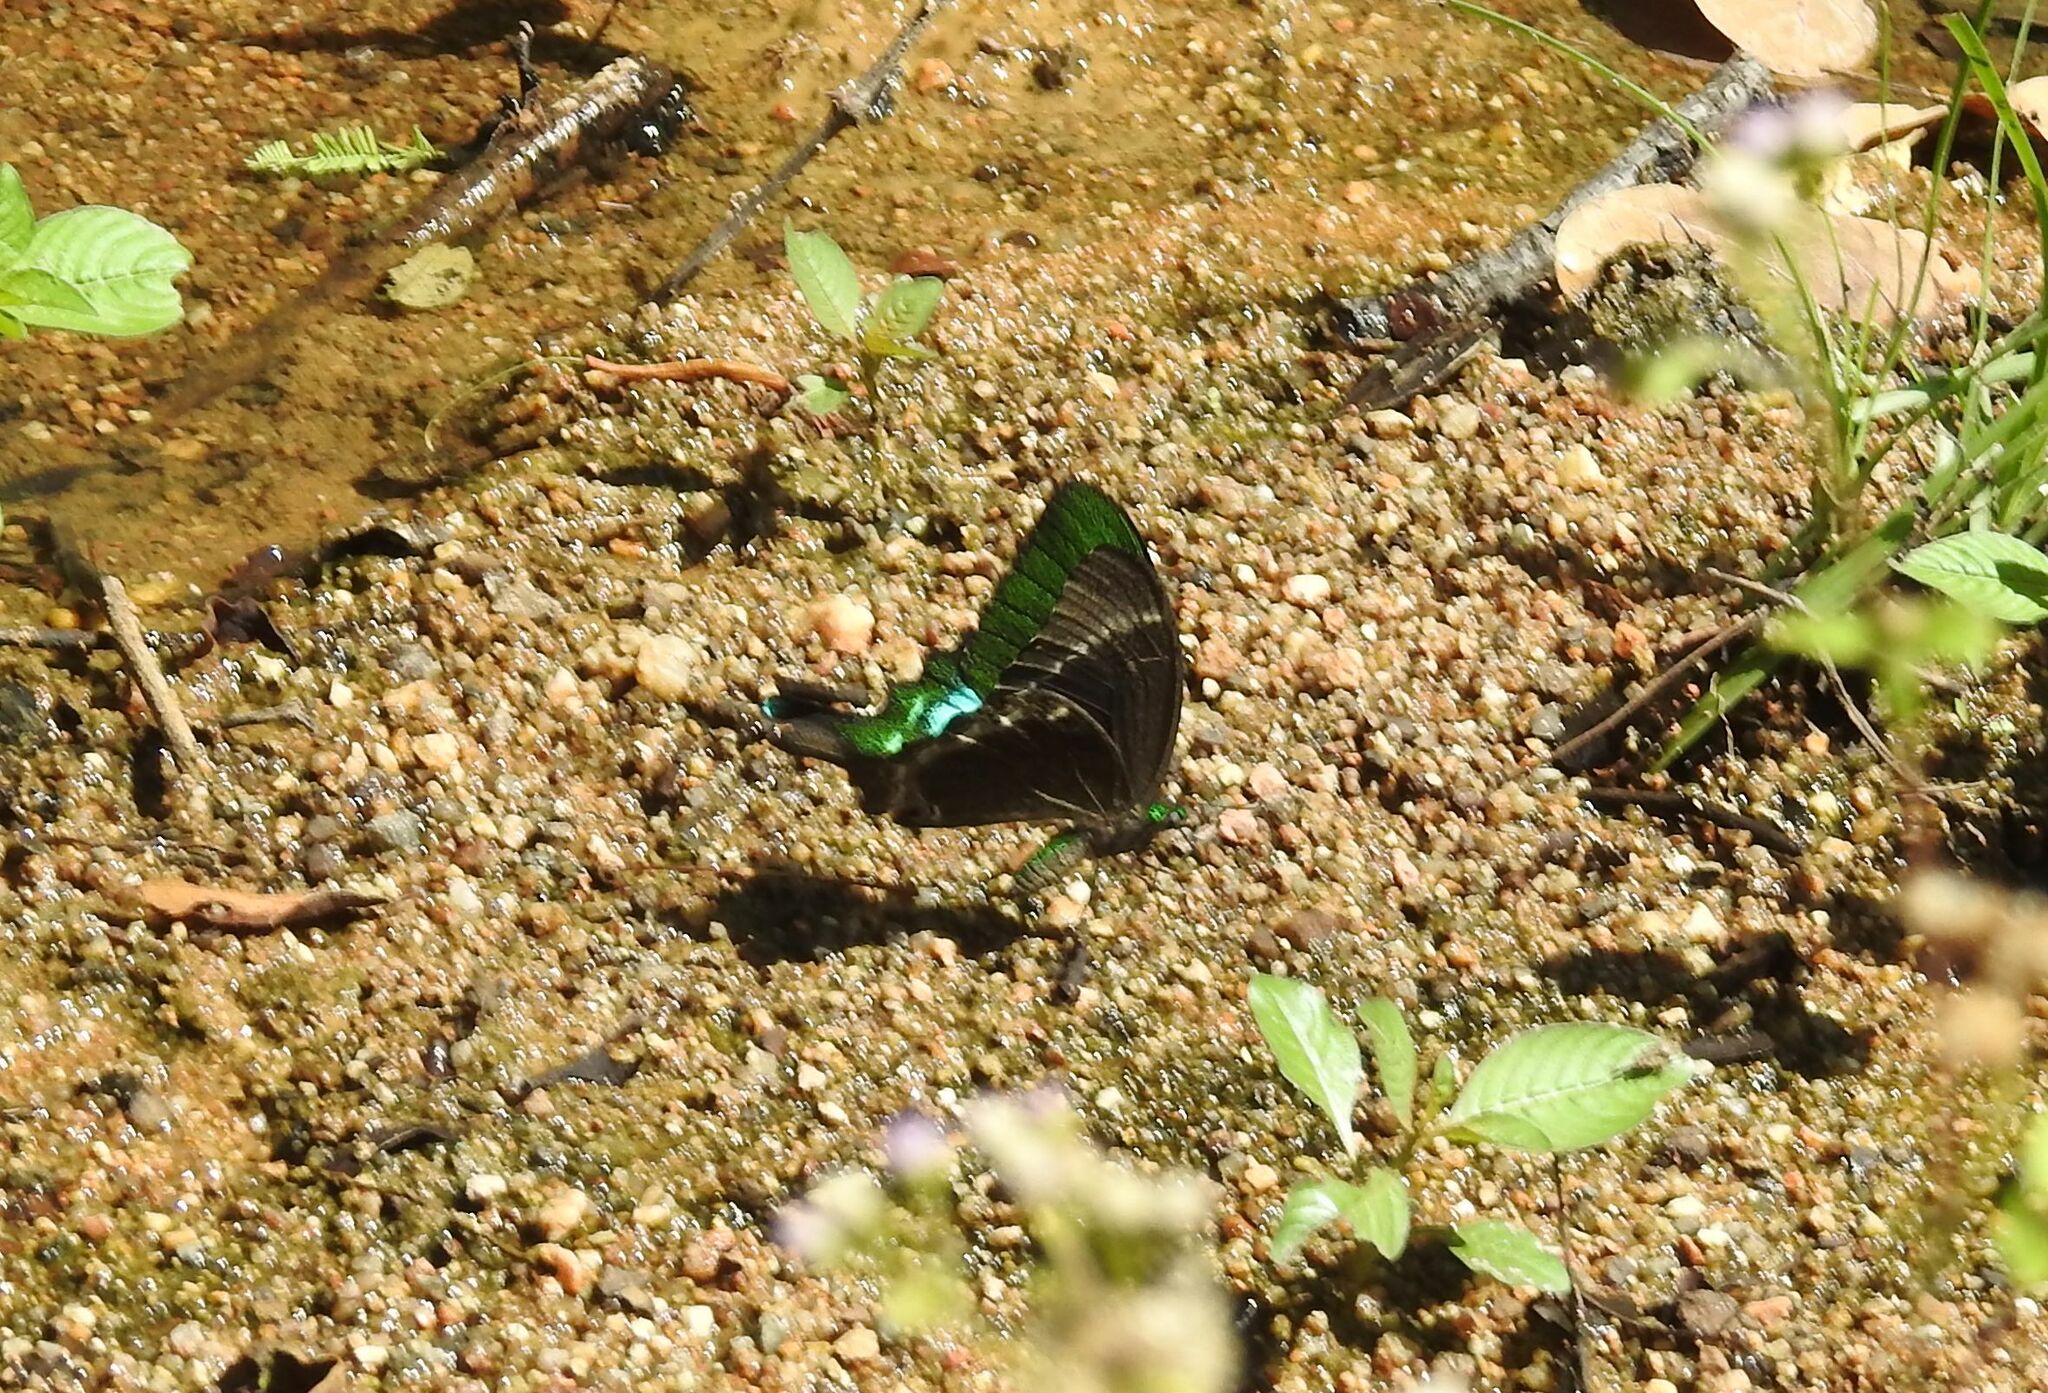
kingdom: Animalia
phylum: Arthropoda
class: Insecta
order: Lepidoptera
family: Papilionidae
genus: Papilio
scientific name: Papilio crino
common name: Common banded peacock
